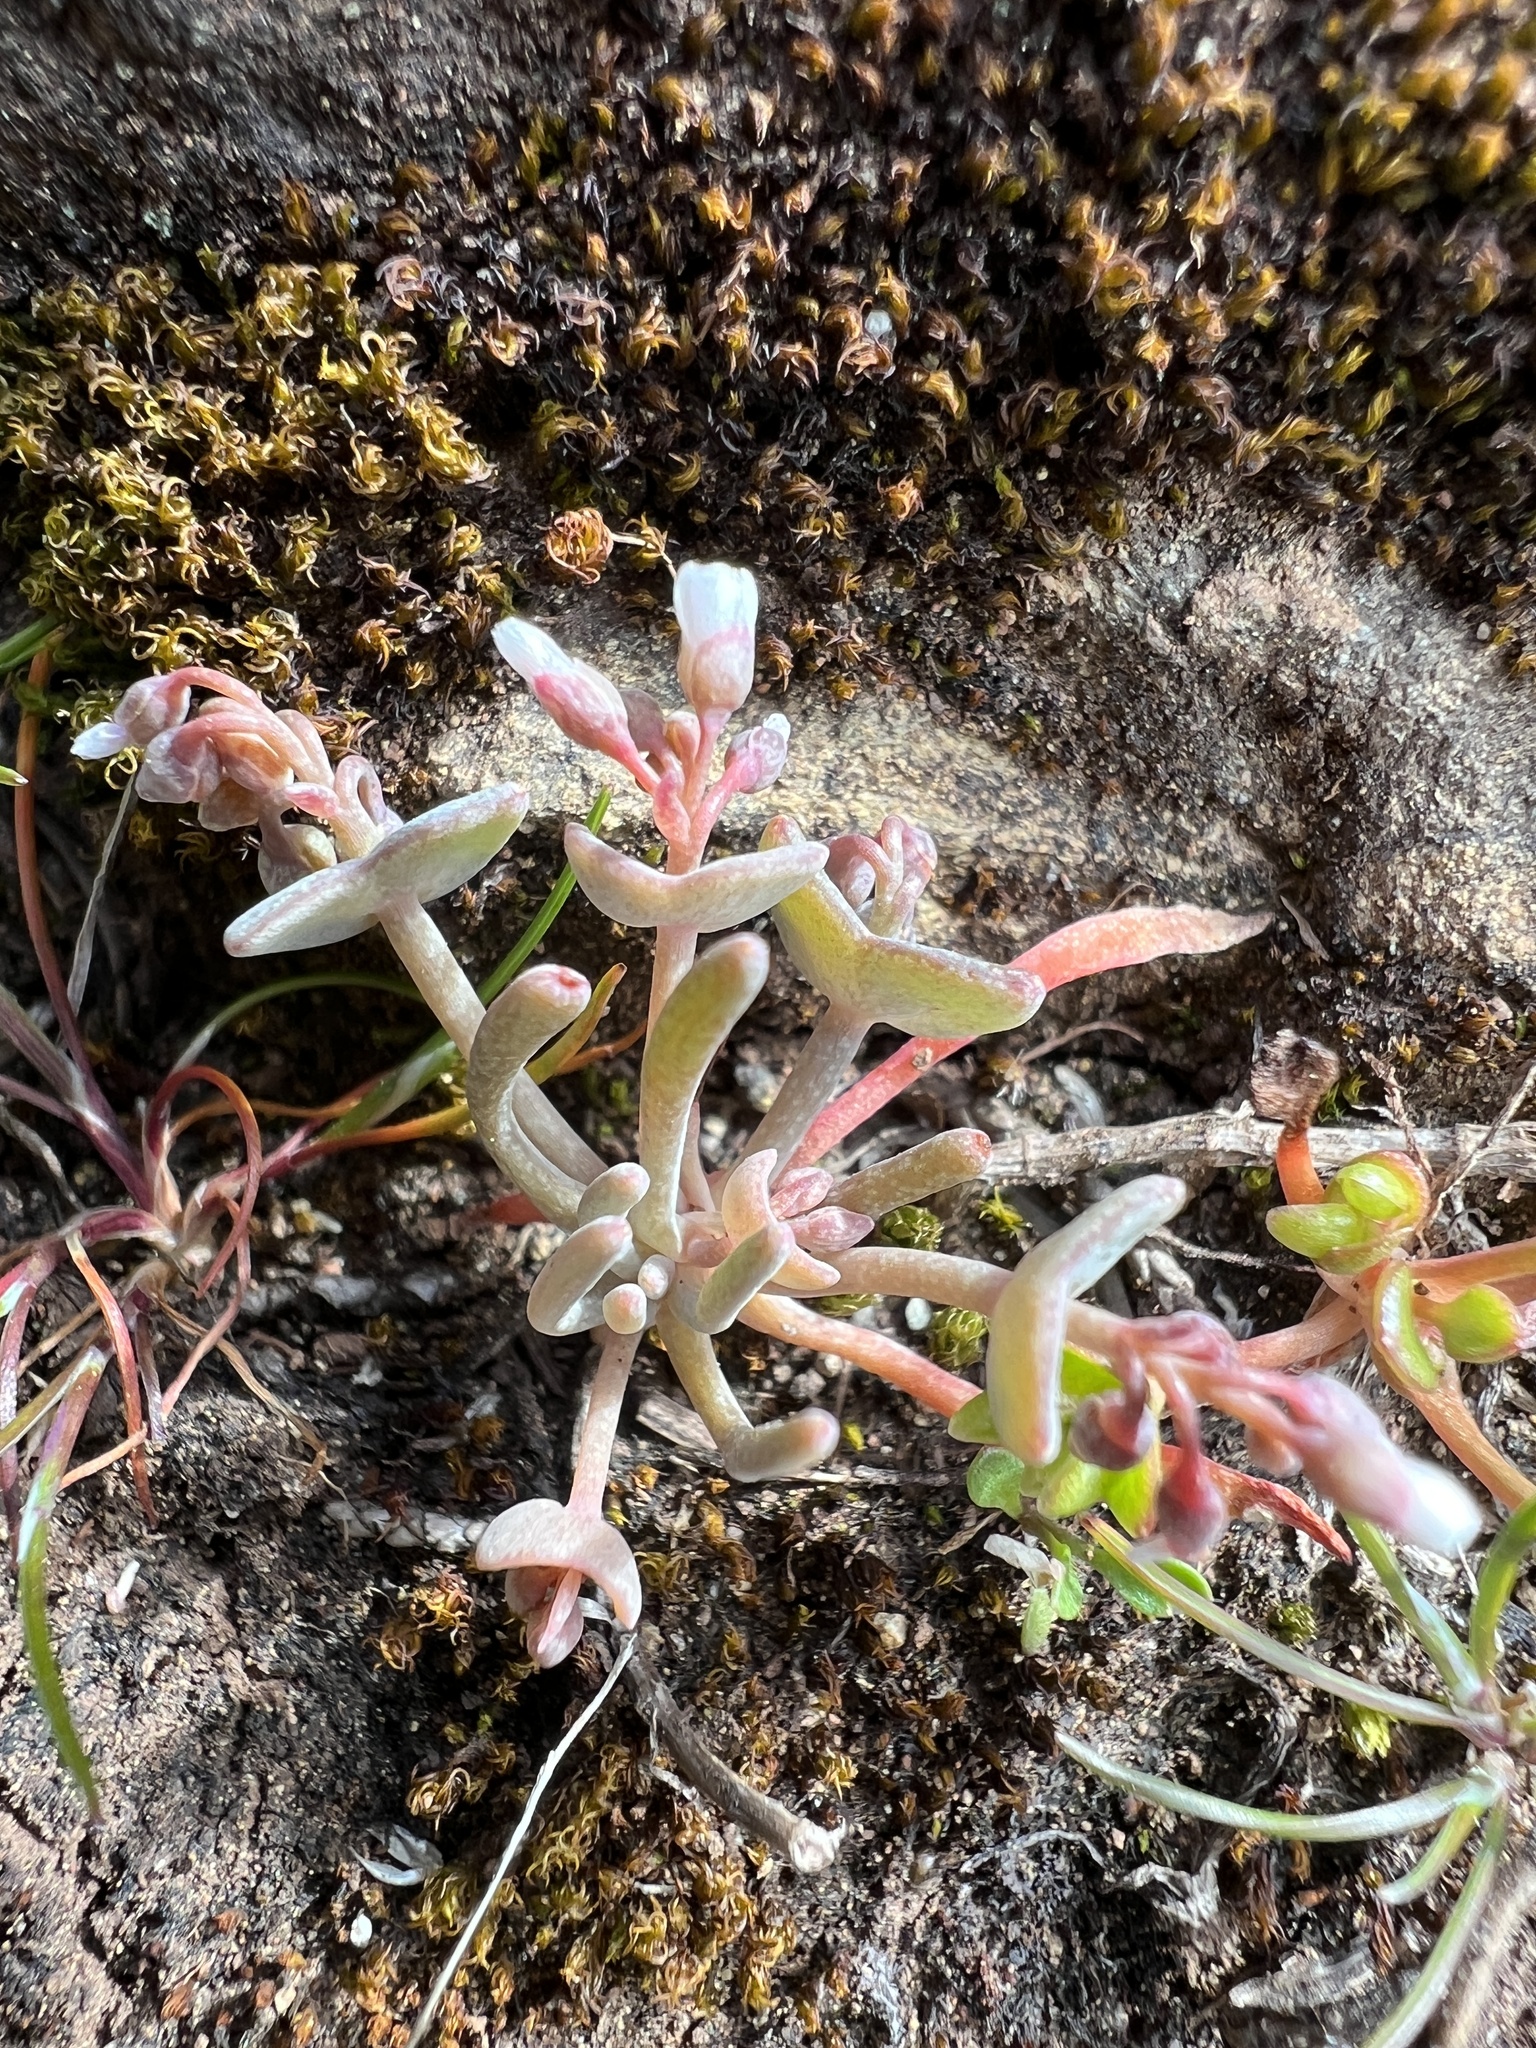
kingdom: Plantae
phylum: Tracheophyta
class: Magnoliopsida
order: Caryophyllales
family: Montiaceae
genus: Claytonia
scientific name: Claytonia exigua
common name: Pale spring beauty
